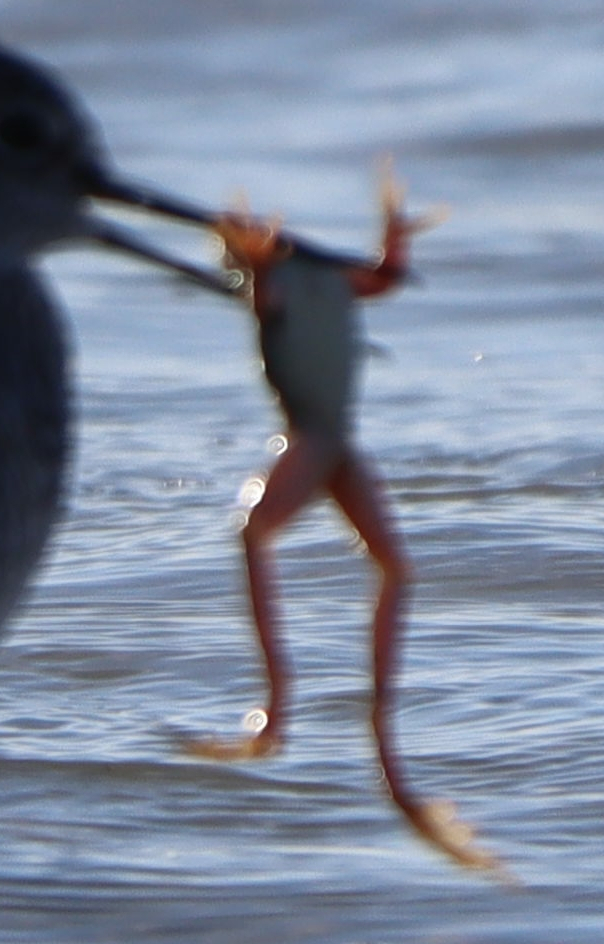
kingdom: Animalia
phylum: Chordata
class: Amphibia
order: Anura
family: Ranidae
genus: Lithobates
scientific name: Lithobates pipiens
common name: Northern leopard frog
